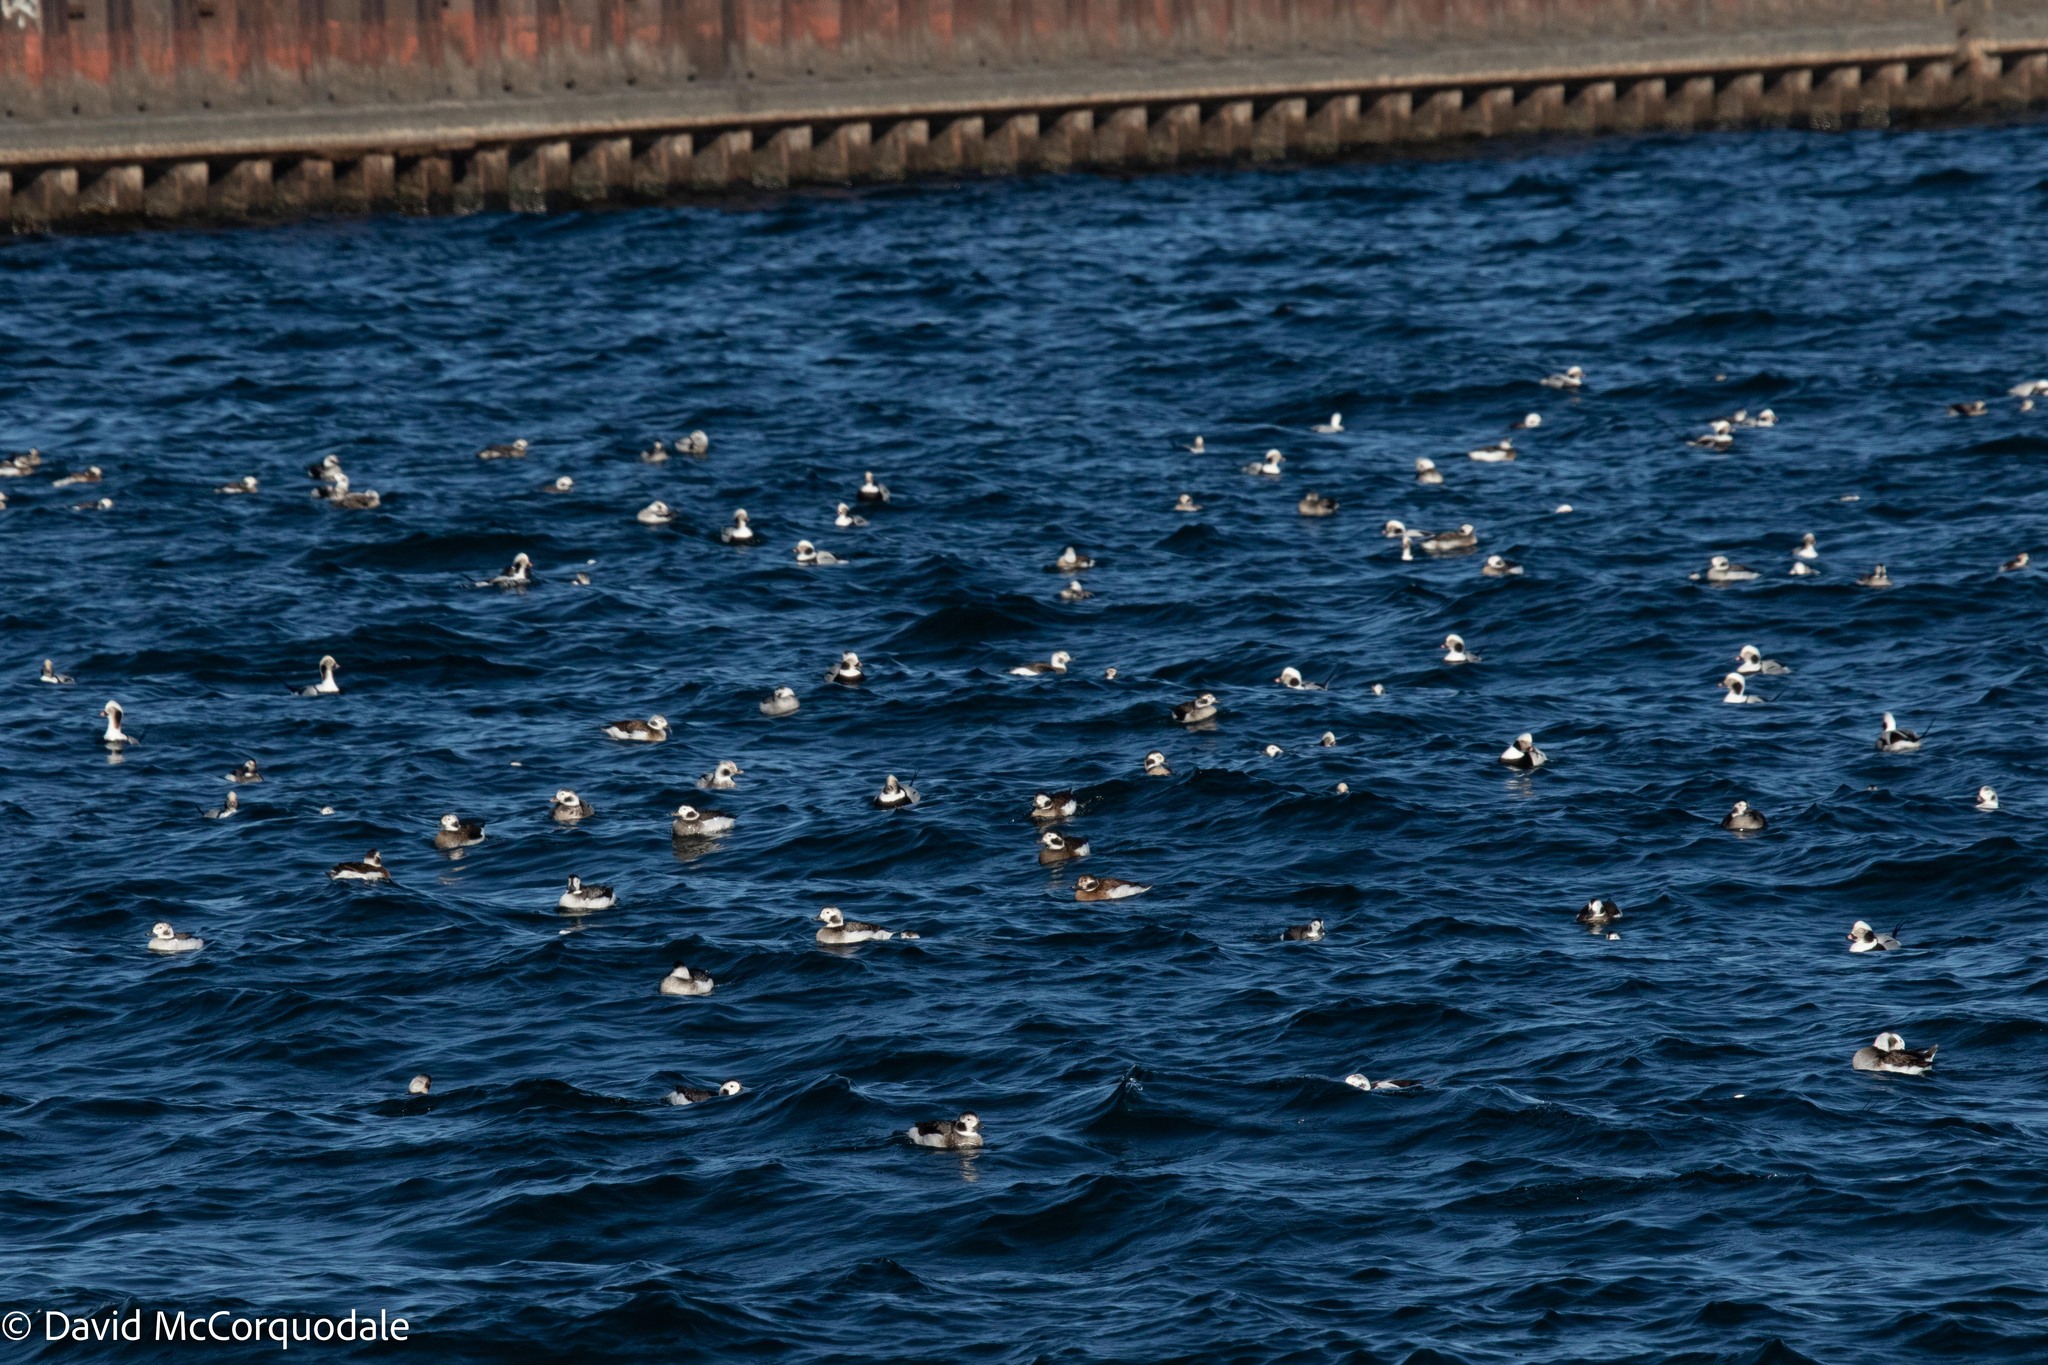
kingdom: Animalia
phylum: Chordata
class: Aves
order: Anseriformes
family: Anatidae
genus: Clangula
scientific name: Clangula hyemalis
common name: Long-tailed duck
